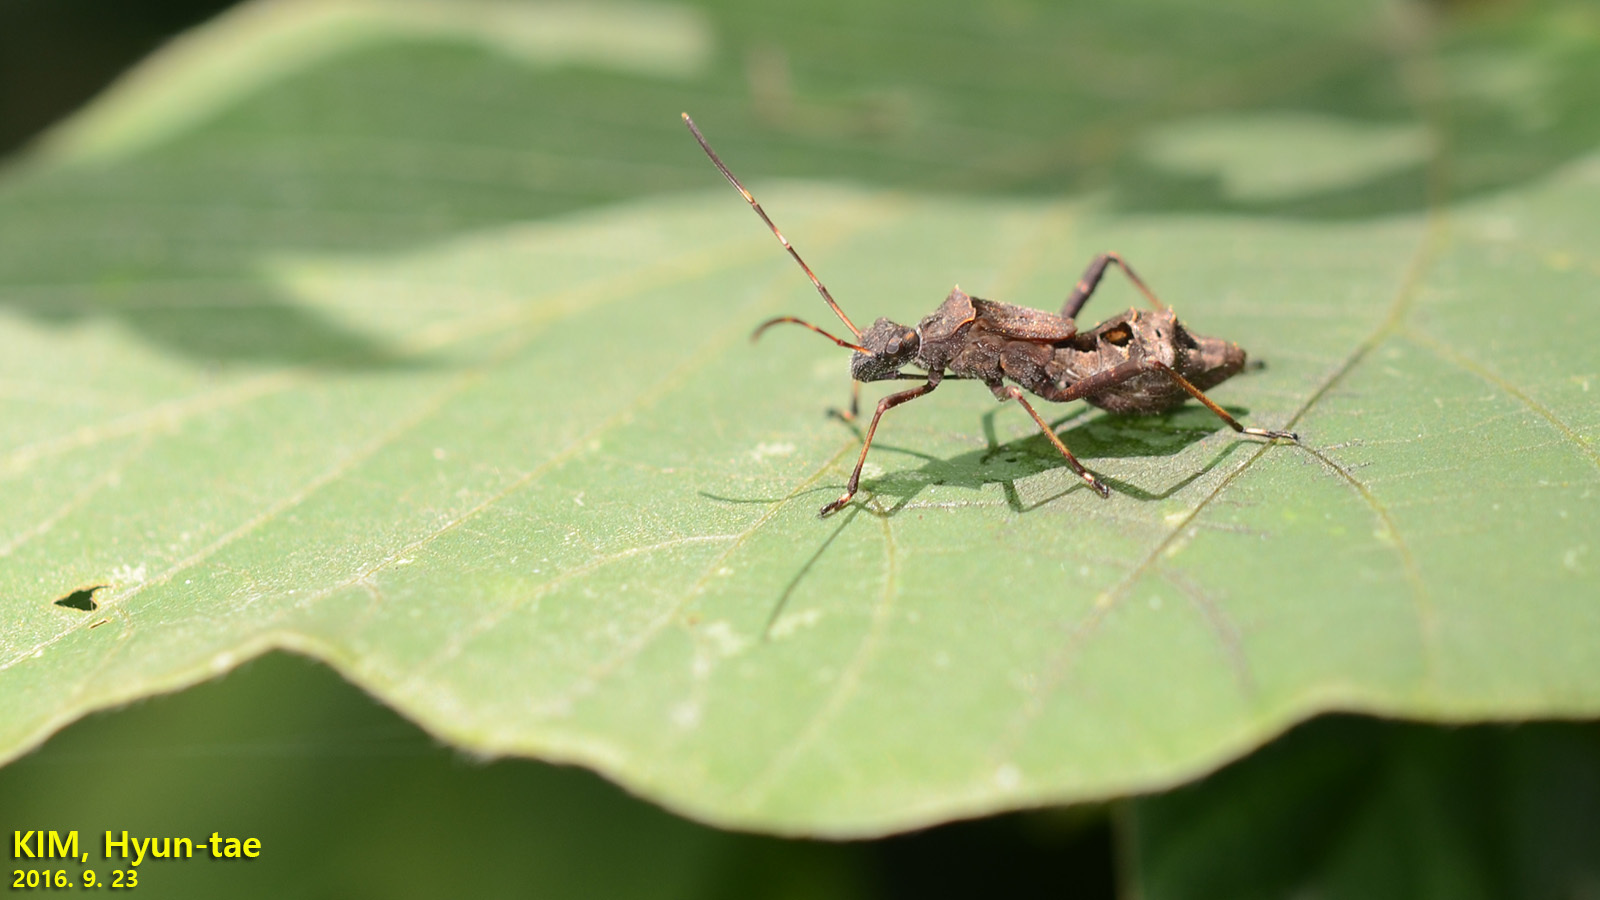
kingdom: Animalia
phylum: Arthropoda
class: Insecta
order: Hemiptera
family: Alydidae
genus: Riptortus
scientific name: Riptortus pedestris
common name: Bean bug
